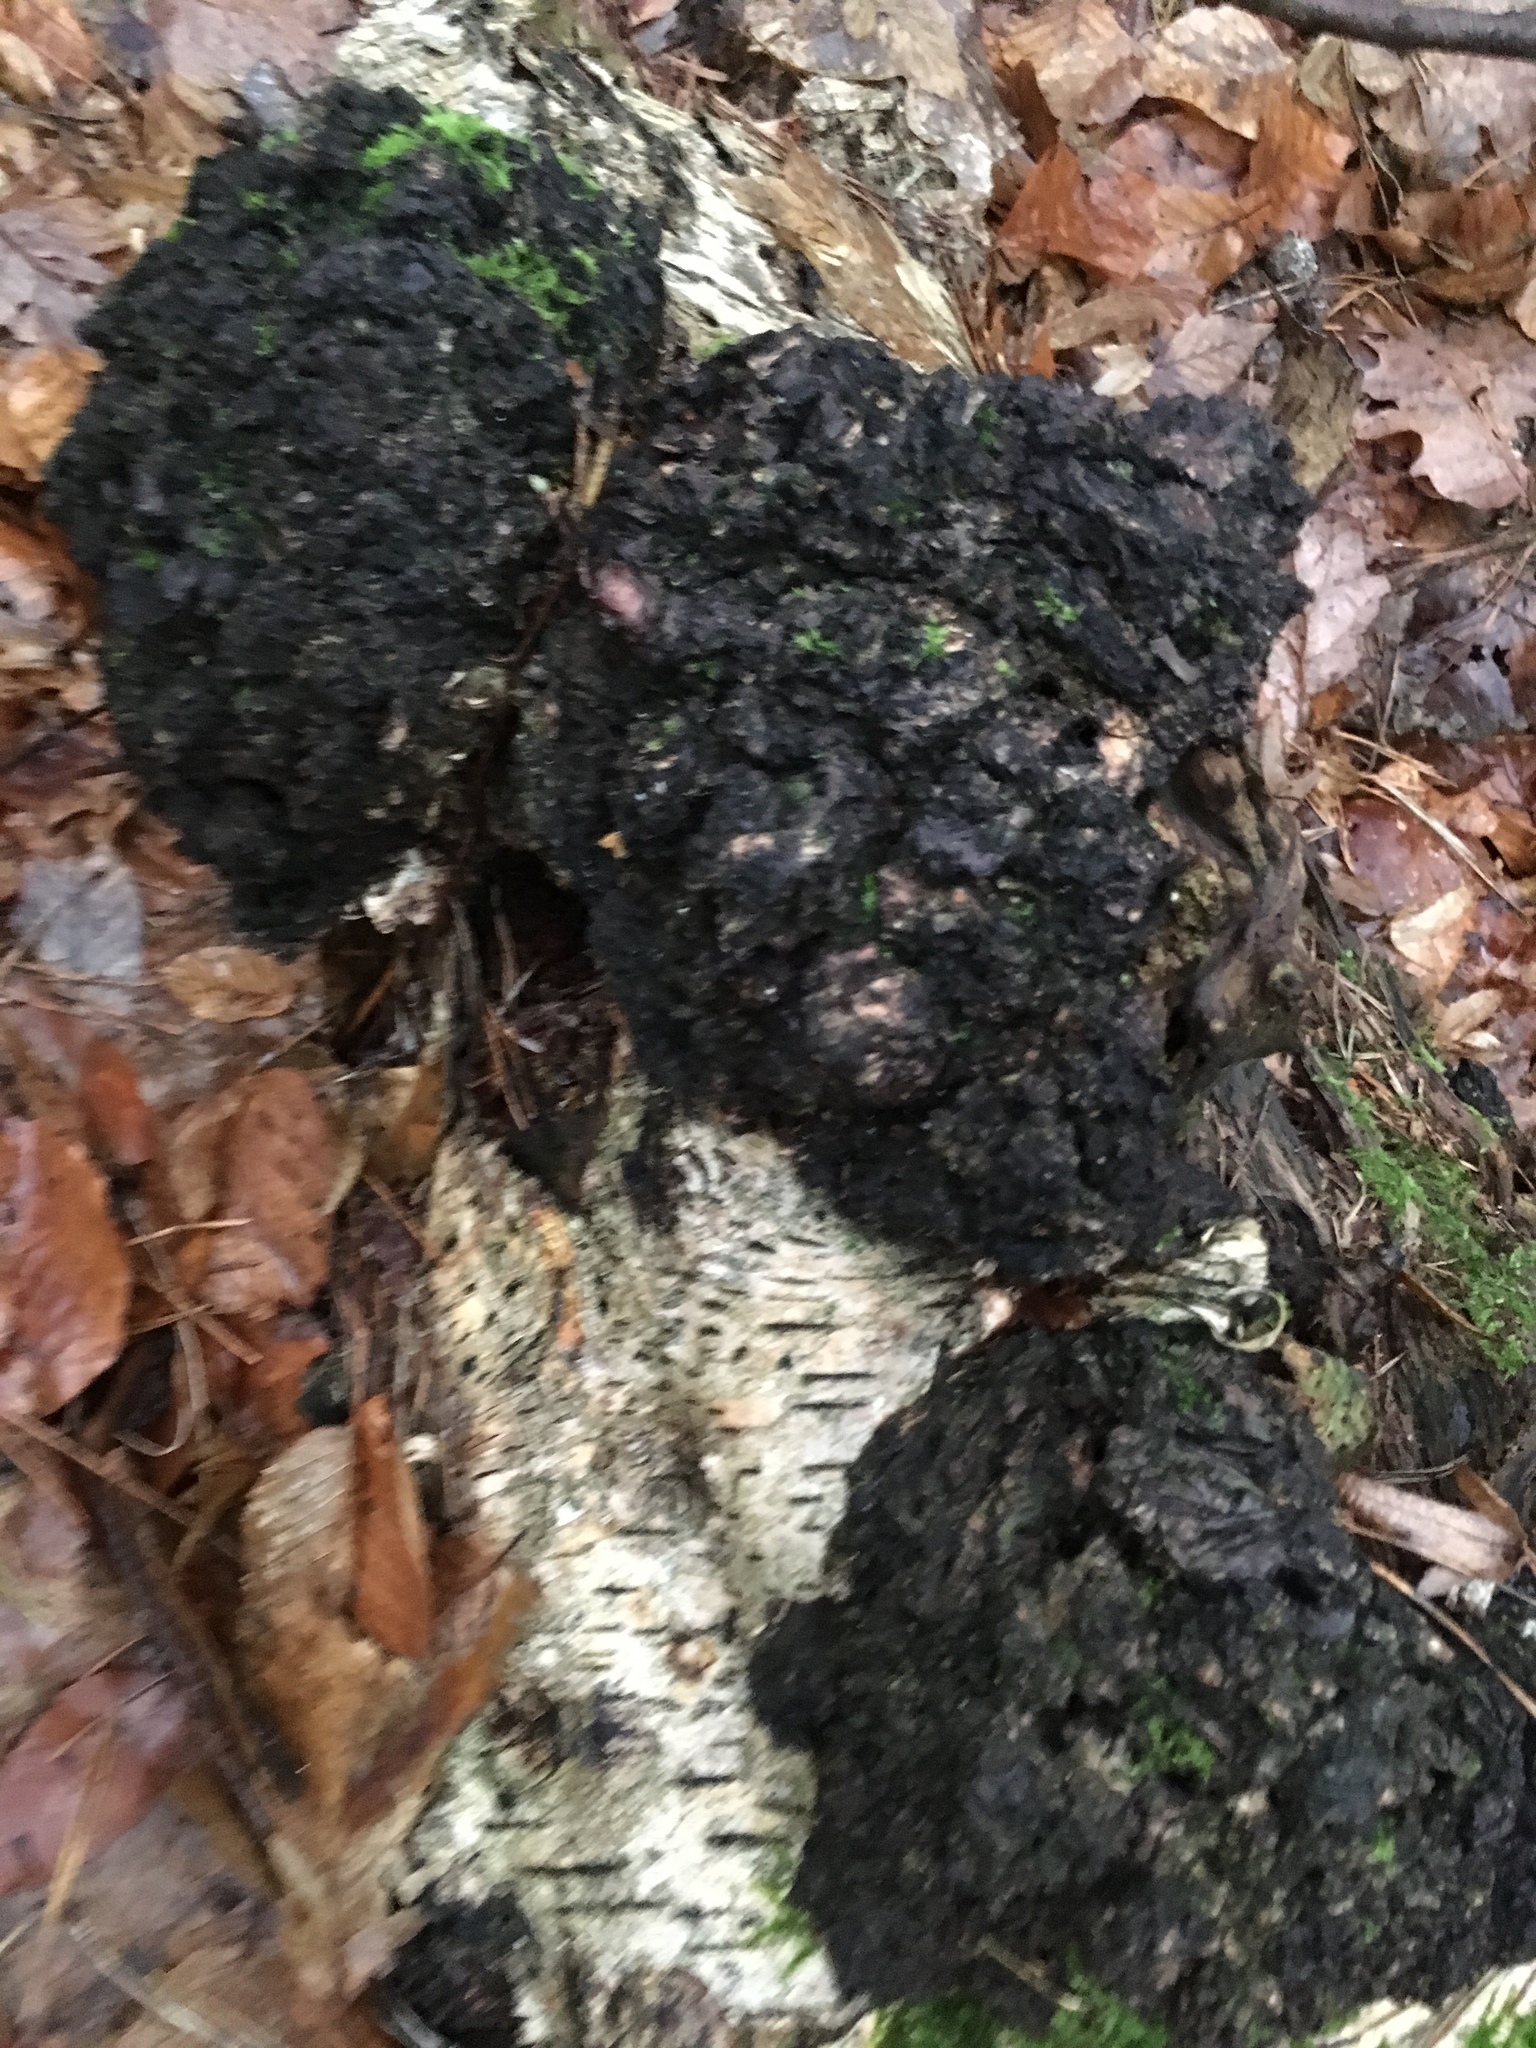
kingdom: Fungi
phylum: Basidiomycota
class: Agaricomycetes
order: Hymenochaetales
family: Hymenochaetaceae
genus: Inonotus
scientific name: Inonotus obliquus
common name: Chaga
